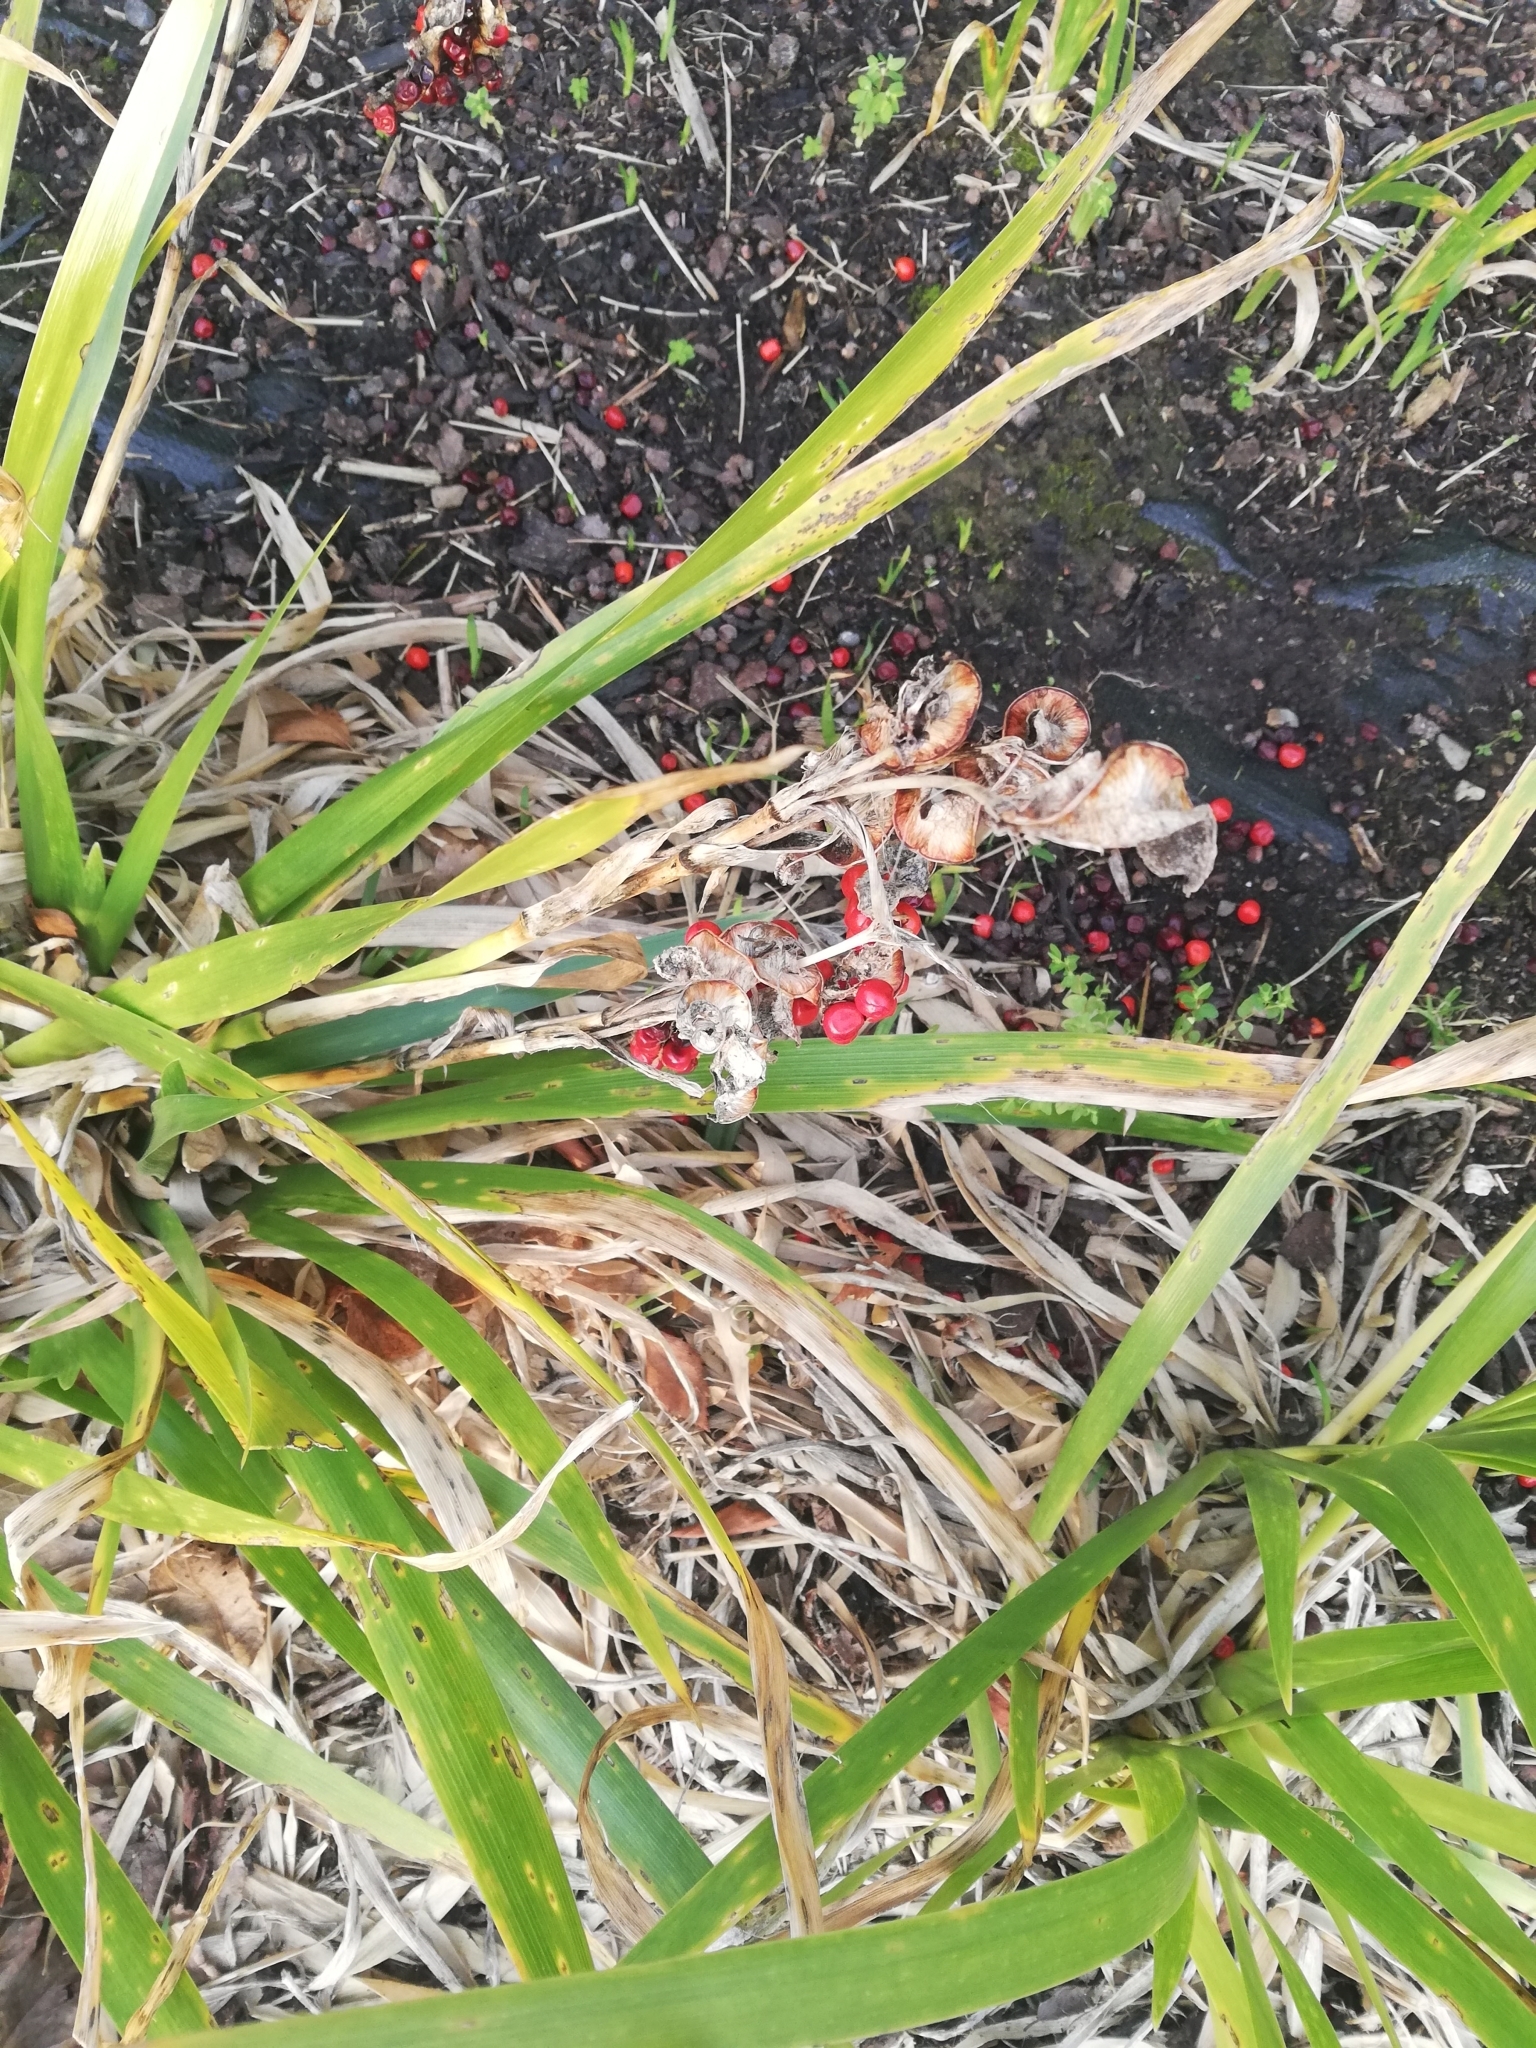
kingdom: Plantae
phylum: Tracheophyta
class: Liliopsida
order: Asparagales
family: Iridaceae
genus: Iris
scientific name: Iris foetidissima
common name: Stinking iris
